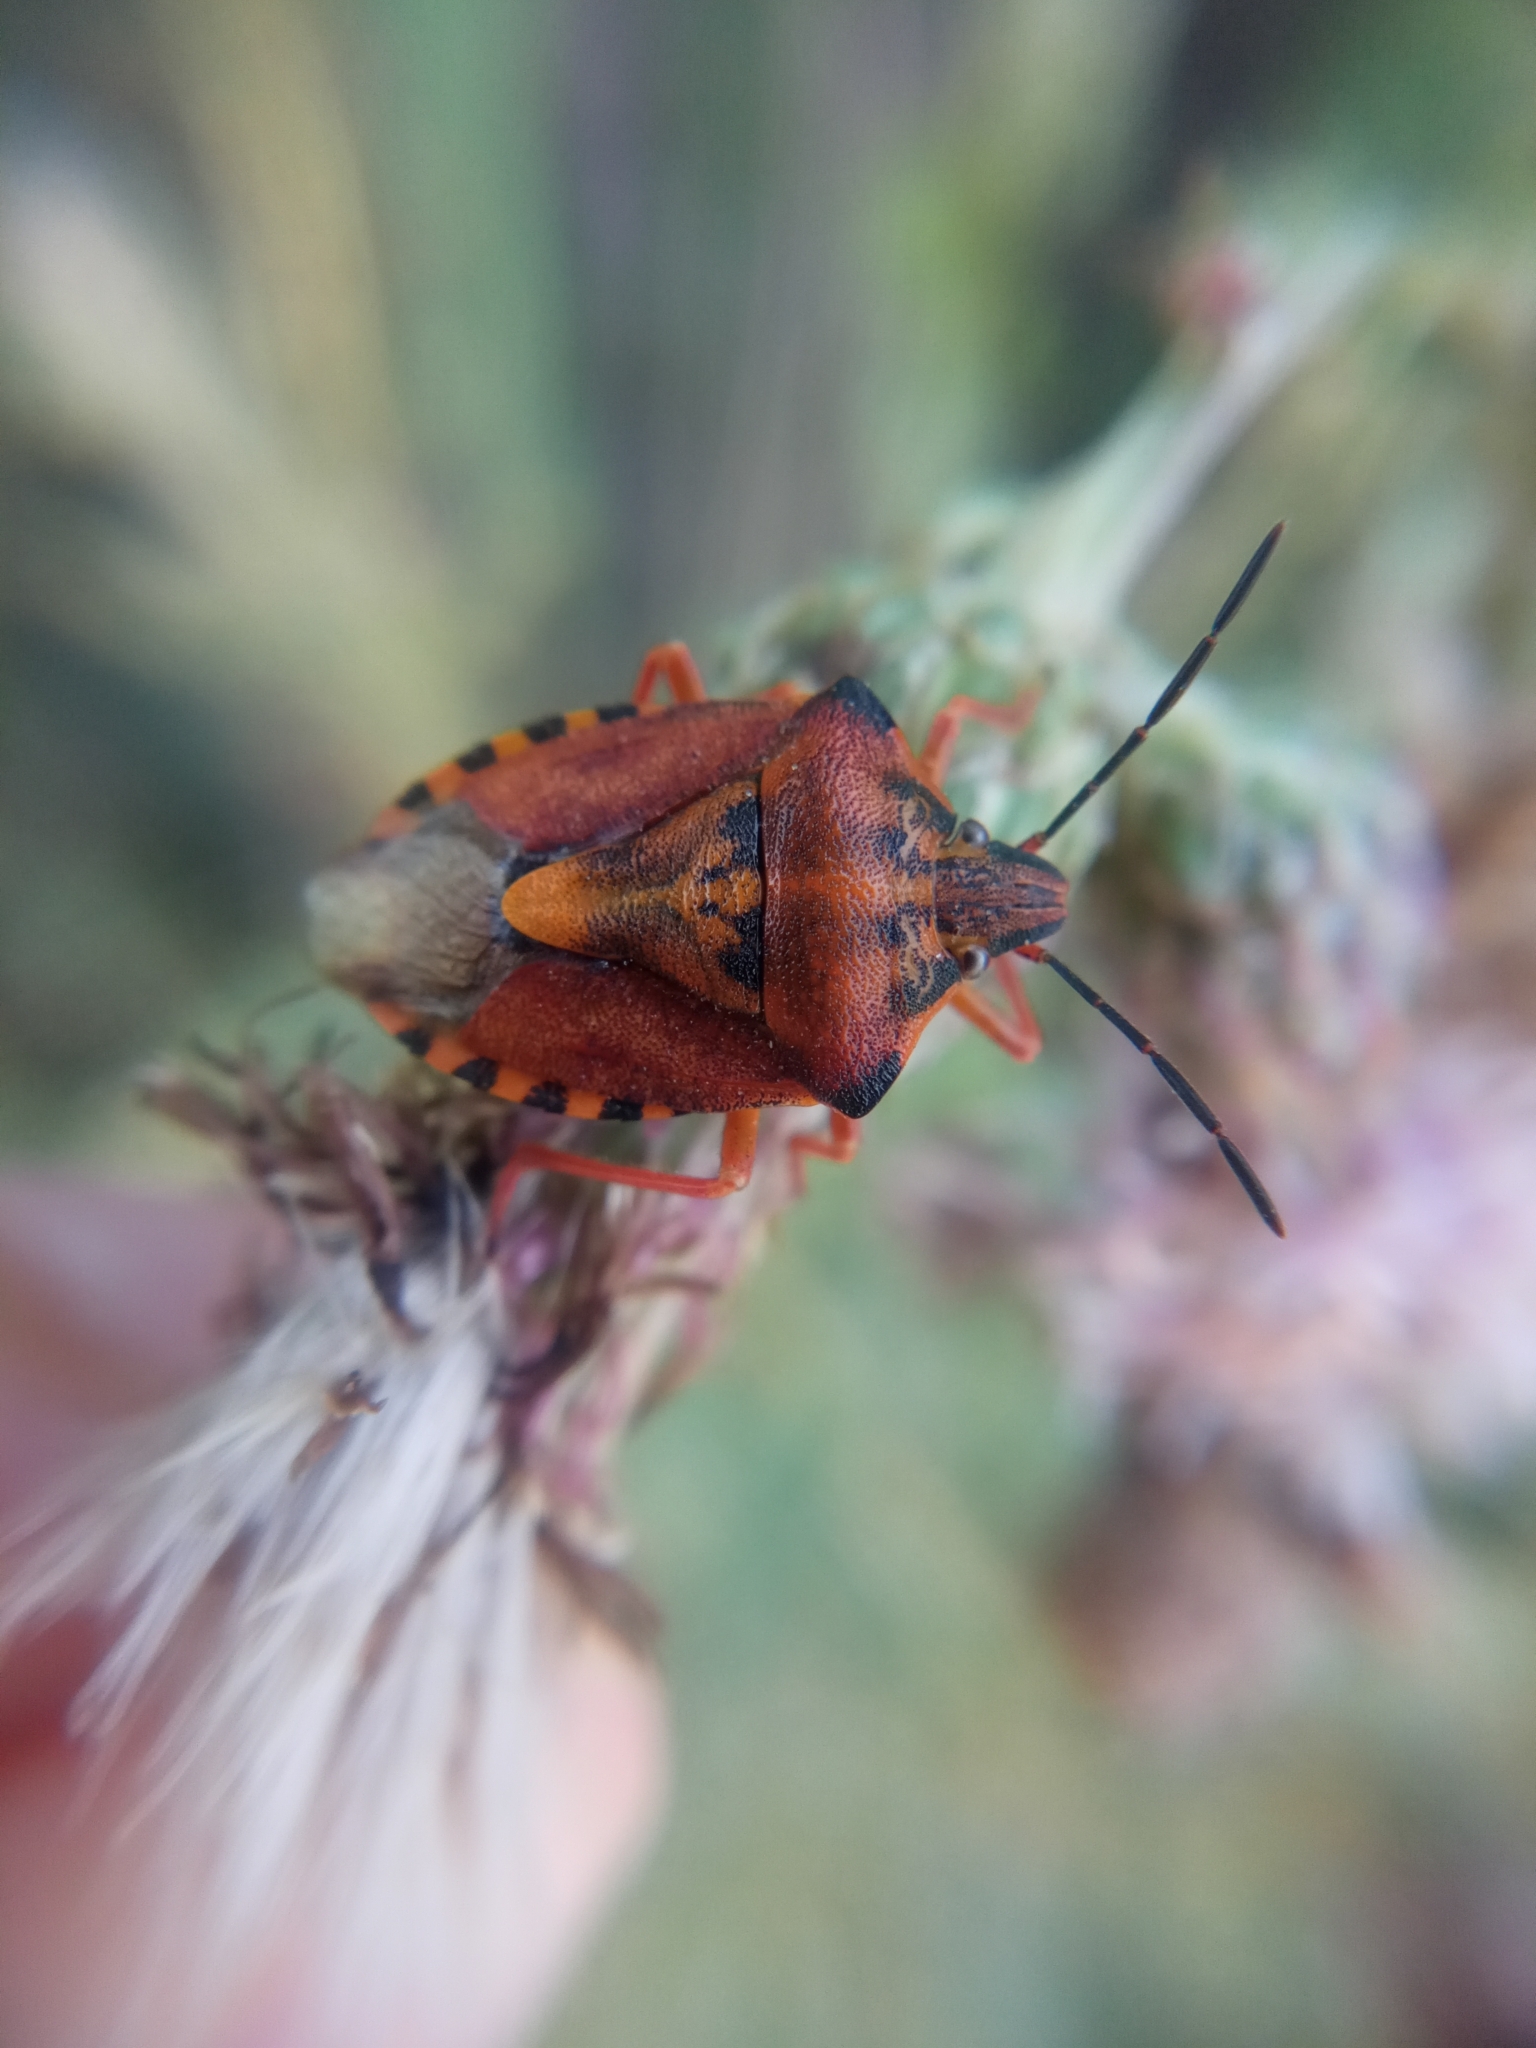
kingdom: Animalia
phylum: Arthropoda
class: Insecta
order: Hemiptera
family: Pentatomidae
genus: Carpocoris
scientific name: Carpocoris purpureipennis
